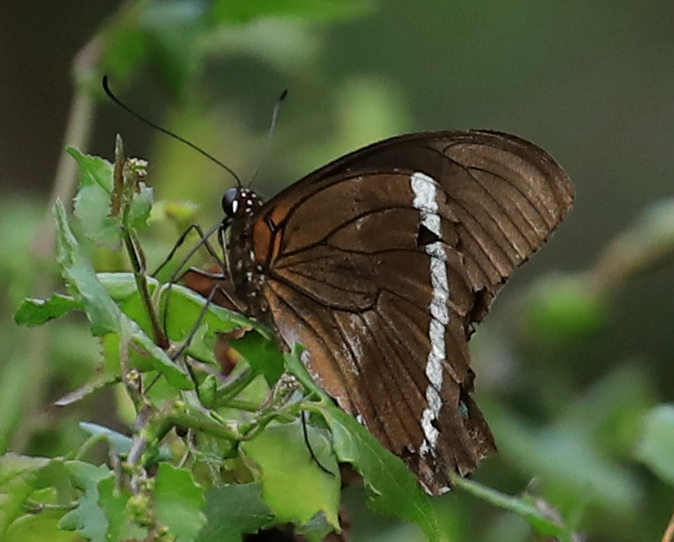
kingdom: Animalia
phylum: Arthropoda
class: Insecta
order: Lepidoptera
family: Papilionidae
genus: Papilio
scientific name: Papilio nireus
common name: Greenbanded swallowtail
